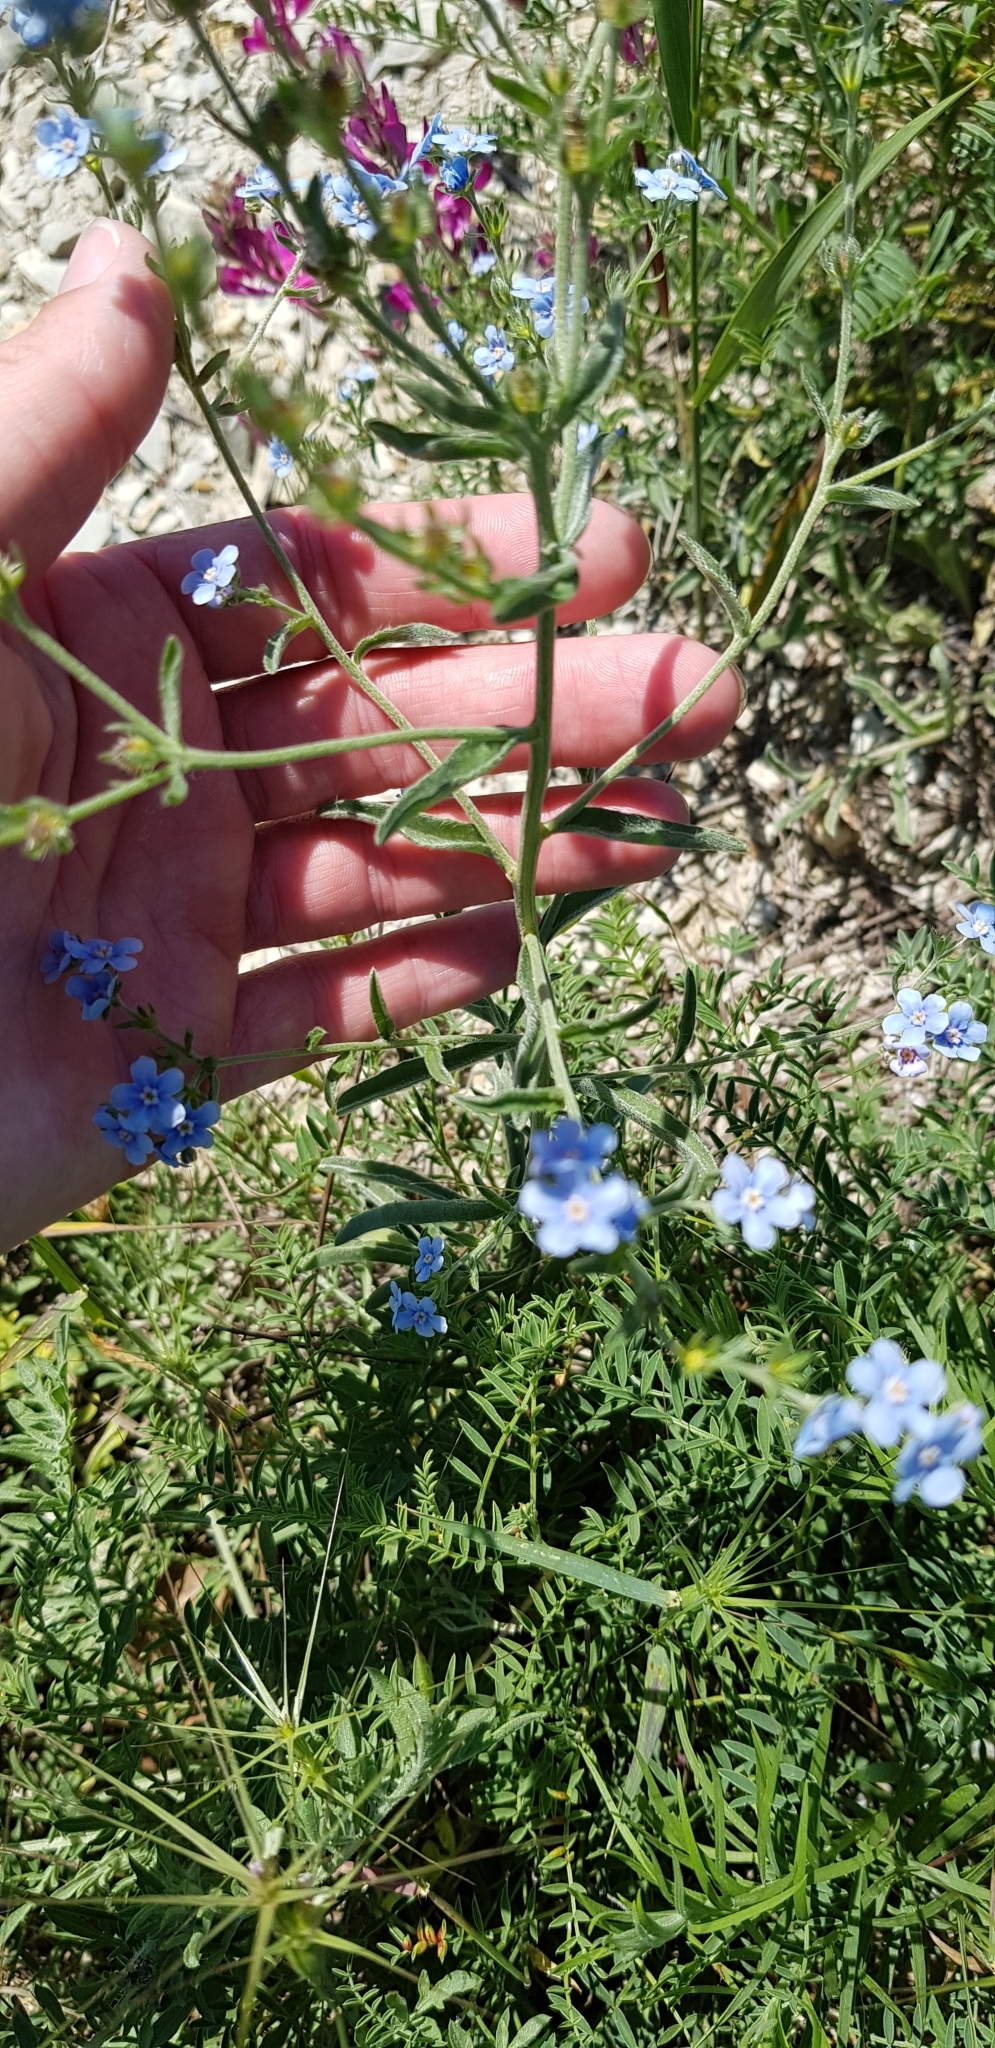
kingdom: Plantae
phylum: Tracheophyta
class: Magnoliopsida
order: Boraginales
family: Boraginaceae
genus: Lappula
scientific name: Lappula barbata
